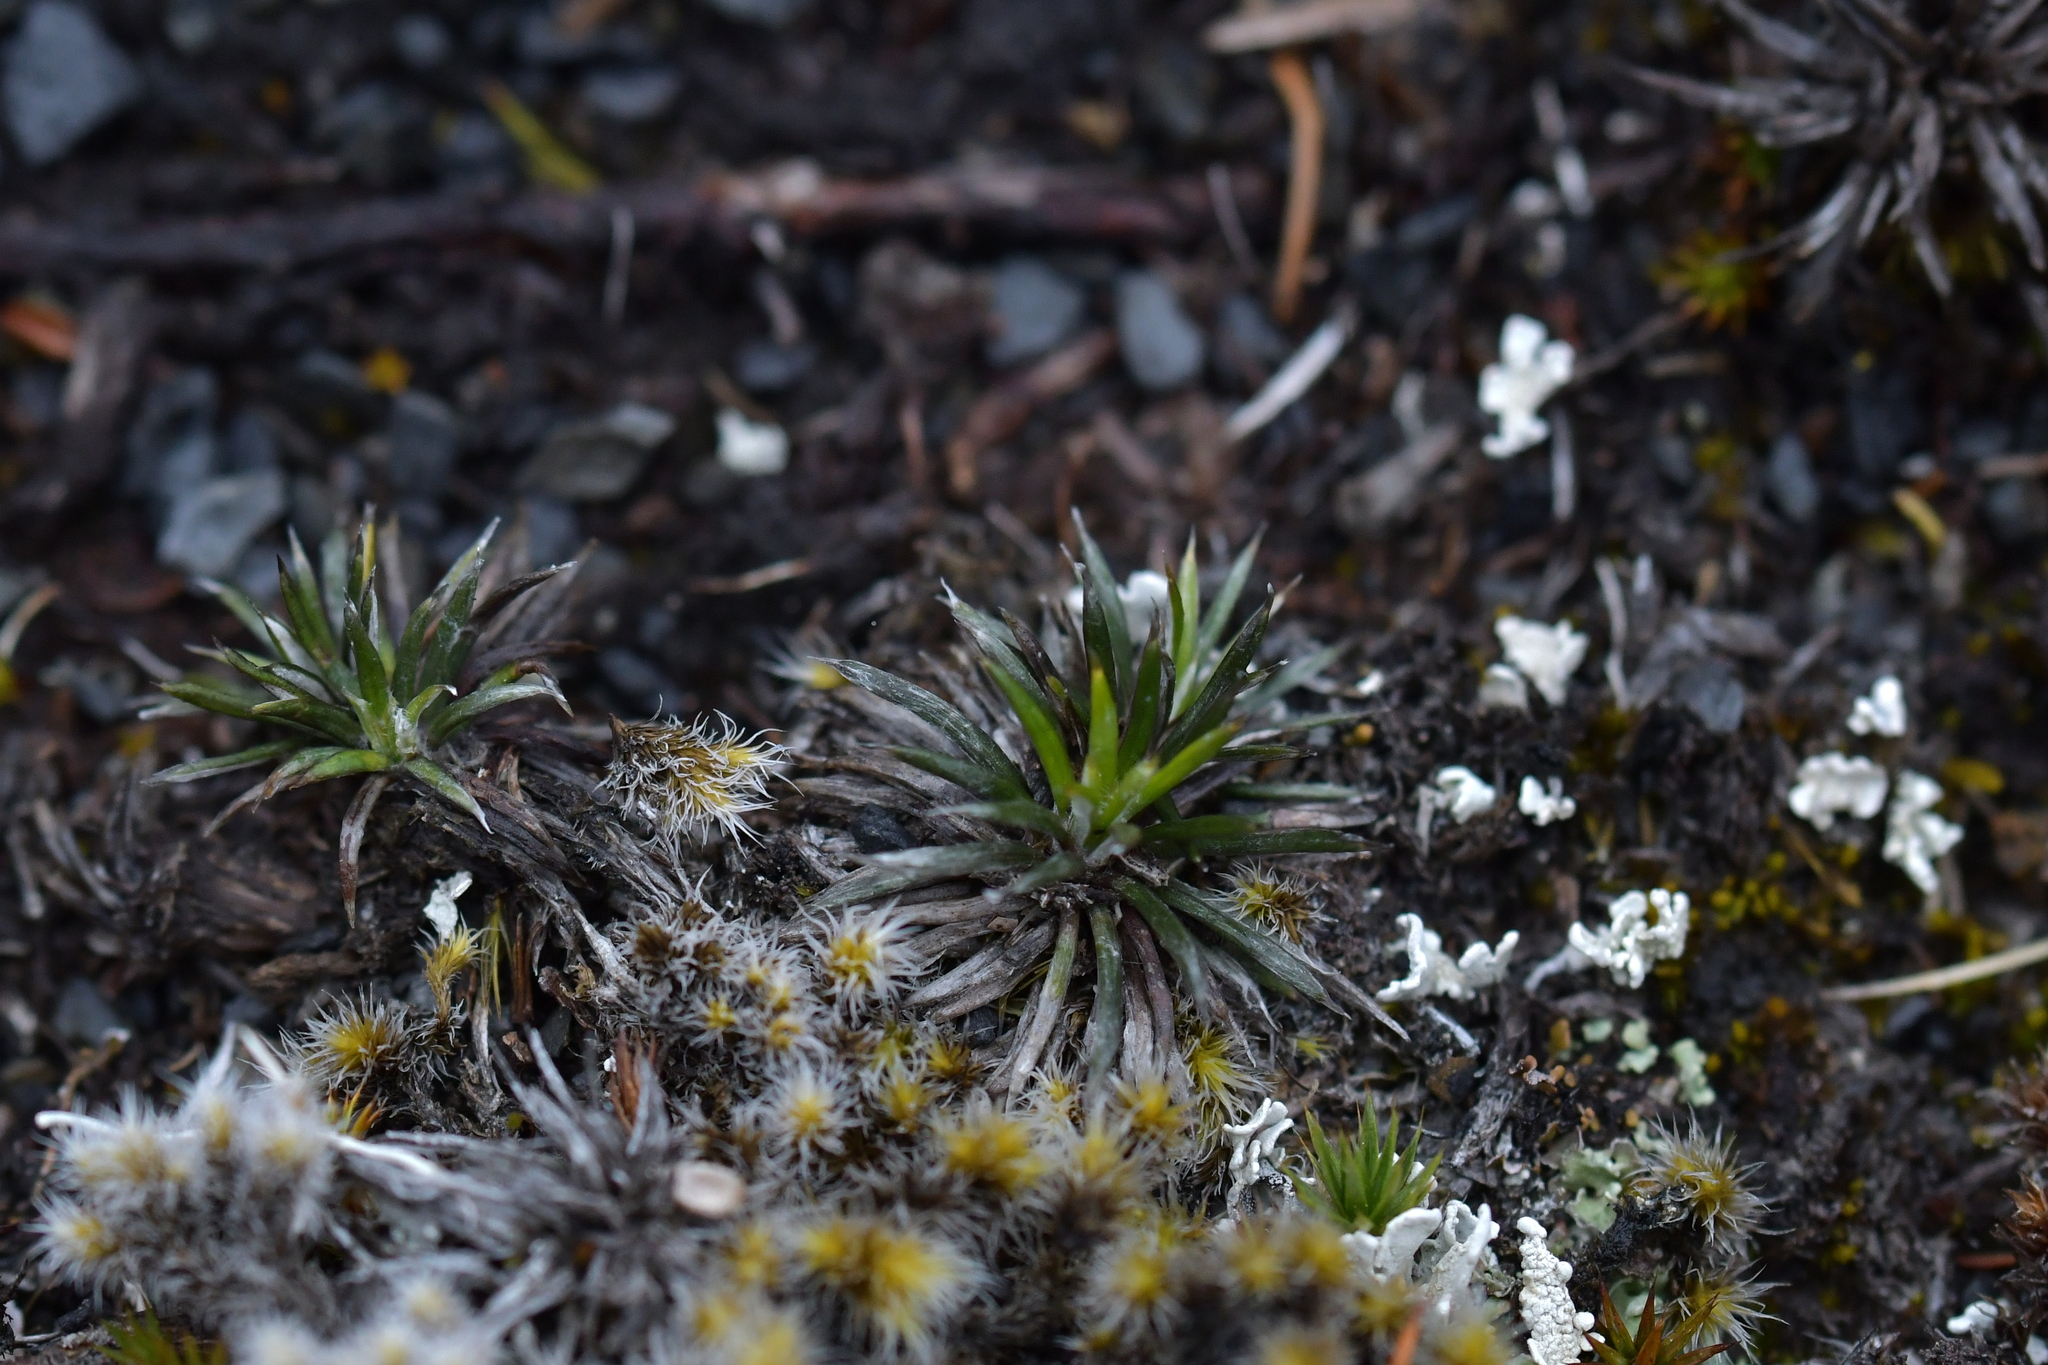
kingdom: Plantae
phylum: Tracheophyta
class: Magnoliopsida
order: Asterales
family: Asteraceae
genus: Celmisia
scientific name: Celmisia laricifolia
